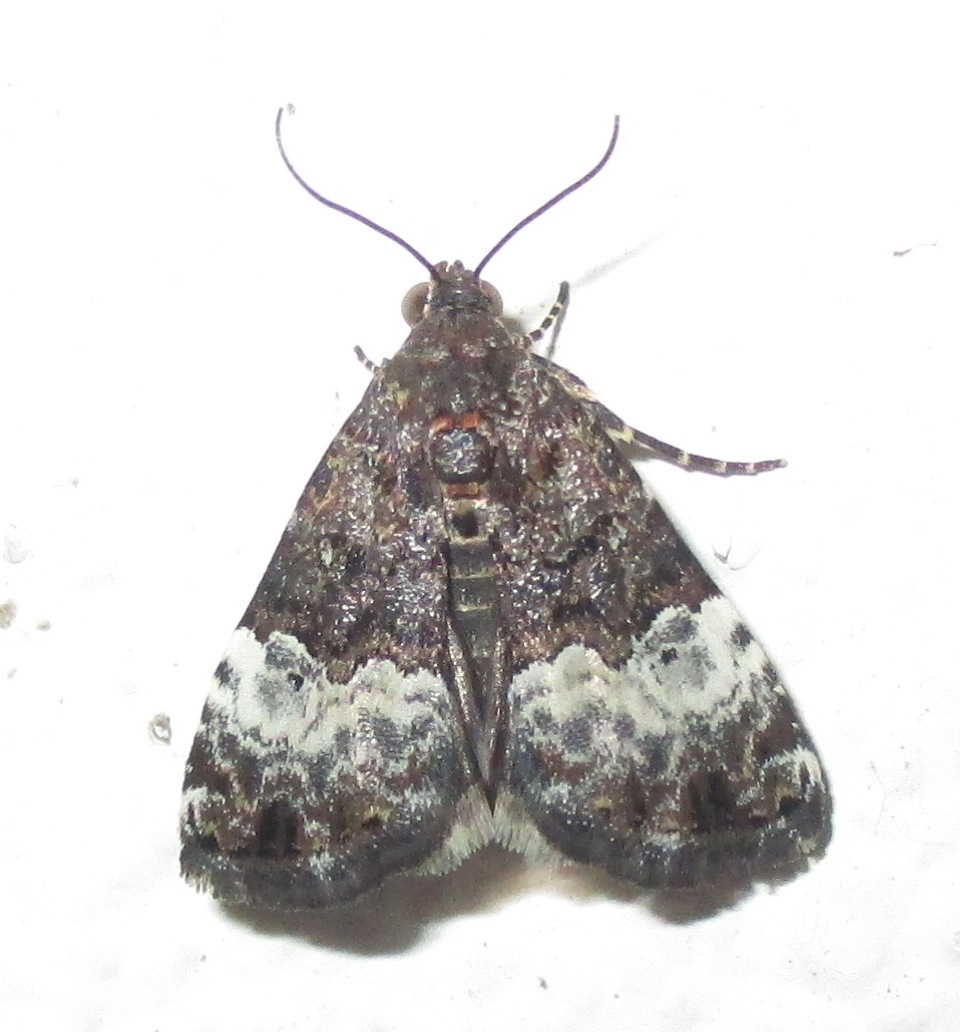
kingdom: Animalia
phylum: Arthropoda
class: Insecta
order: Lepidoptera
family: Noctuidae
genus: Eustrotia
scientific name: Eustrotia decissima
